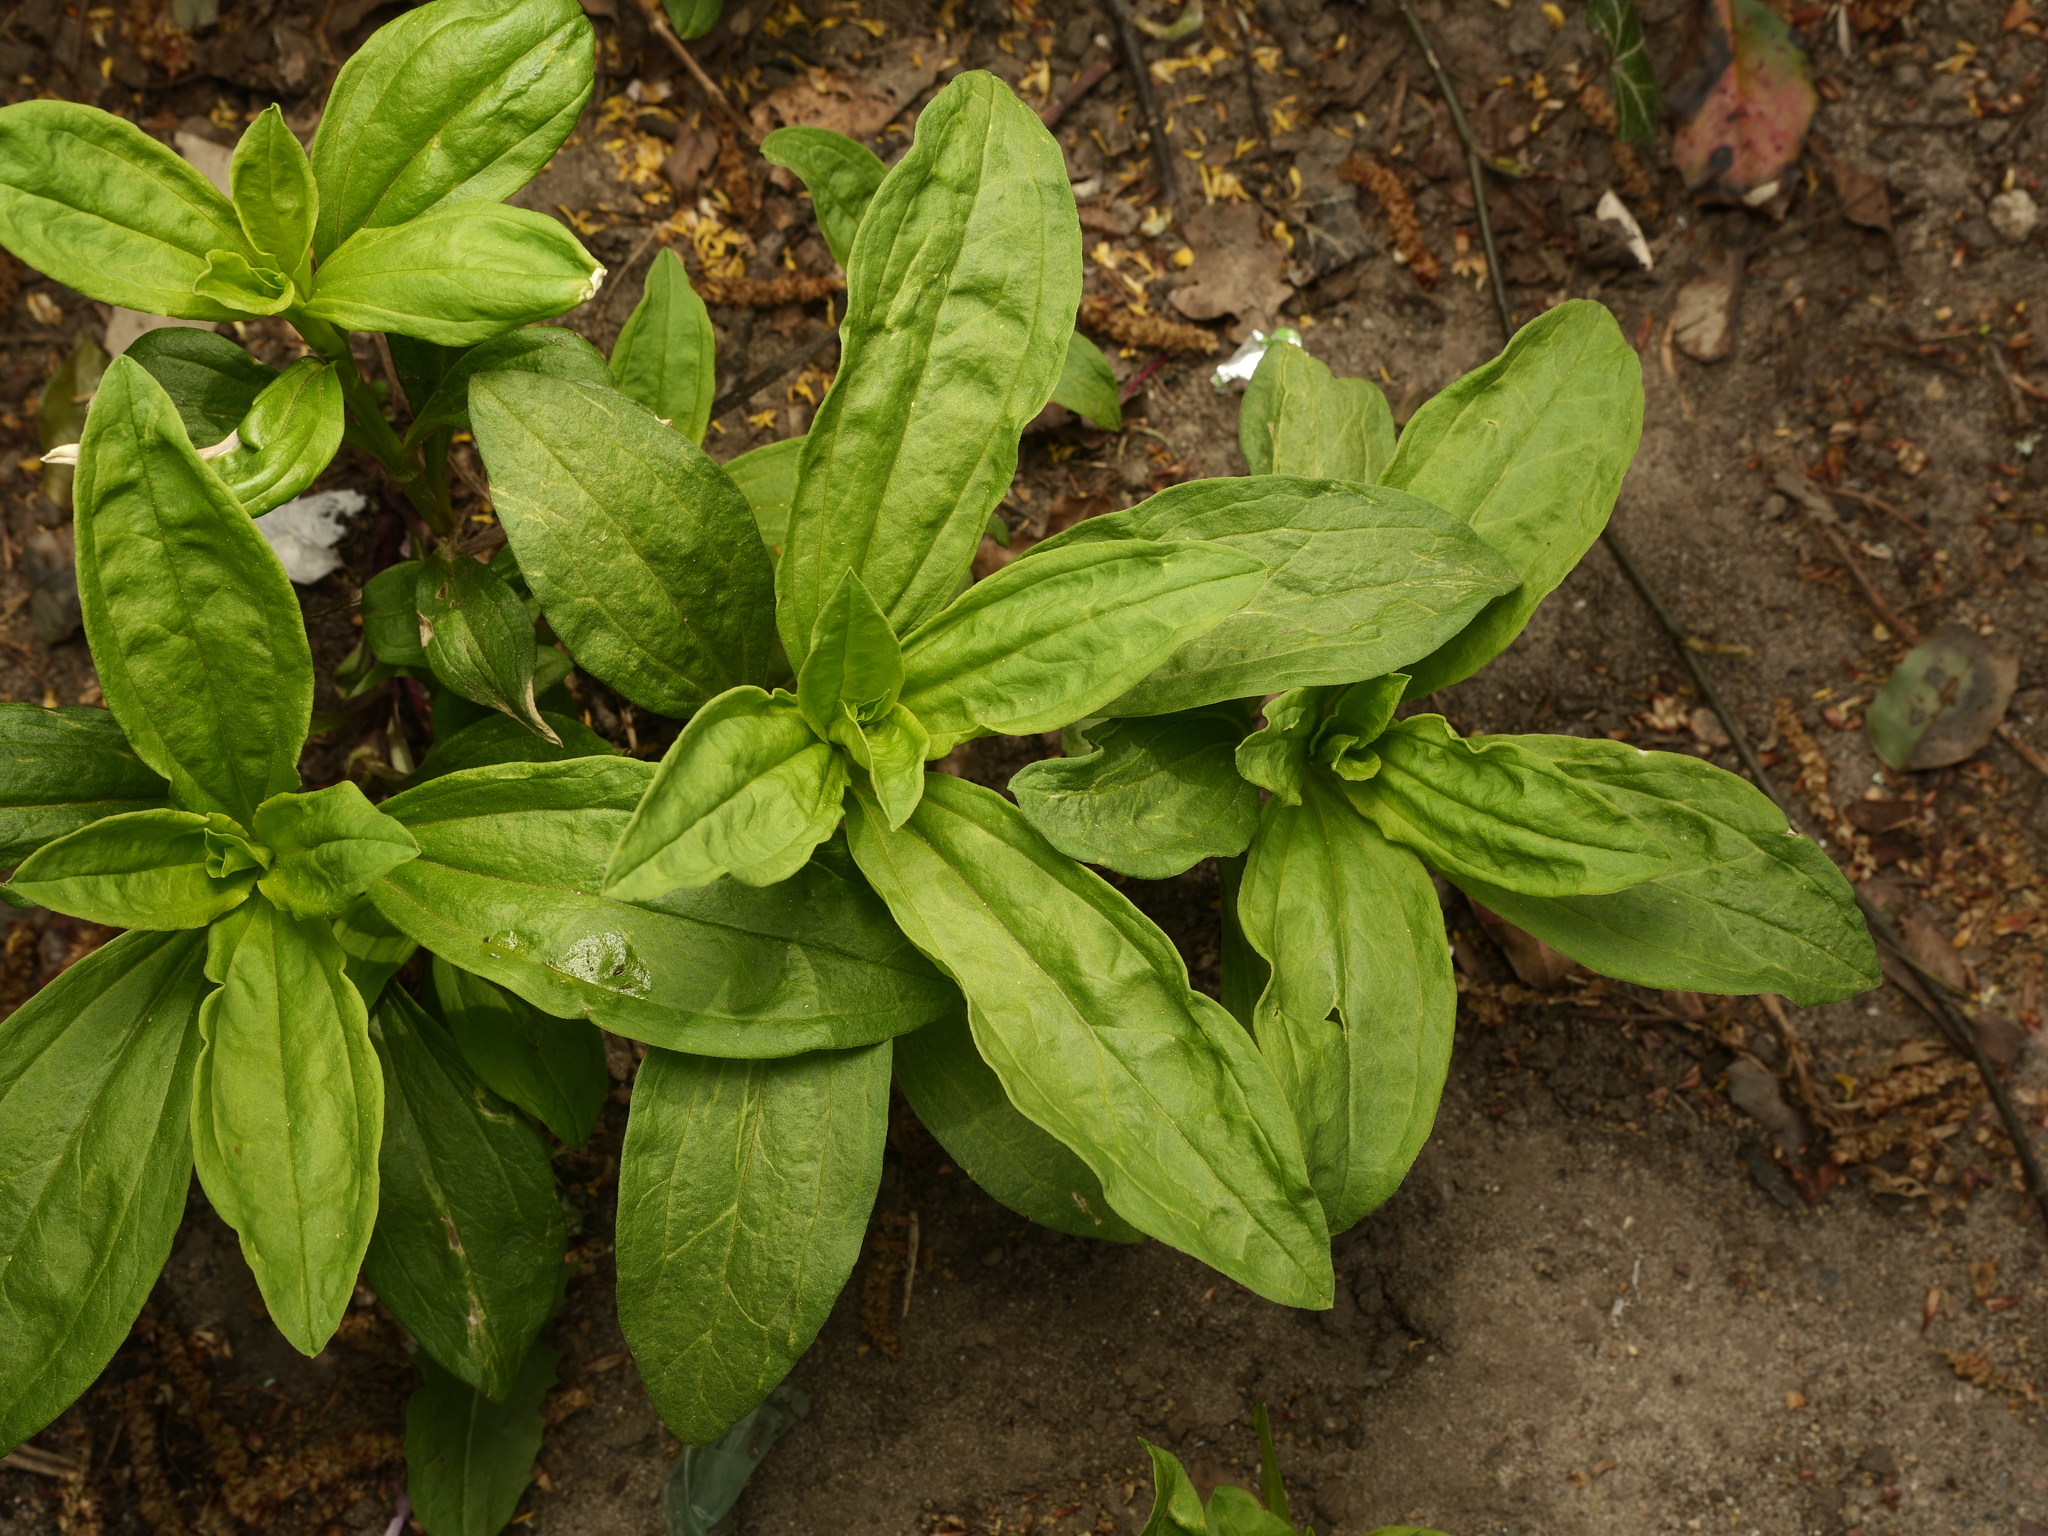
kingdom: Plantae
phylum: Tracheophyta
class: Magnoliopsida
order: Caryophyllales
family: Caryophyllaceae
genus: Saponaria
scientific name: Saponaria officinalis
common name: Soapwort
